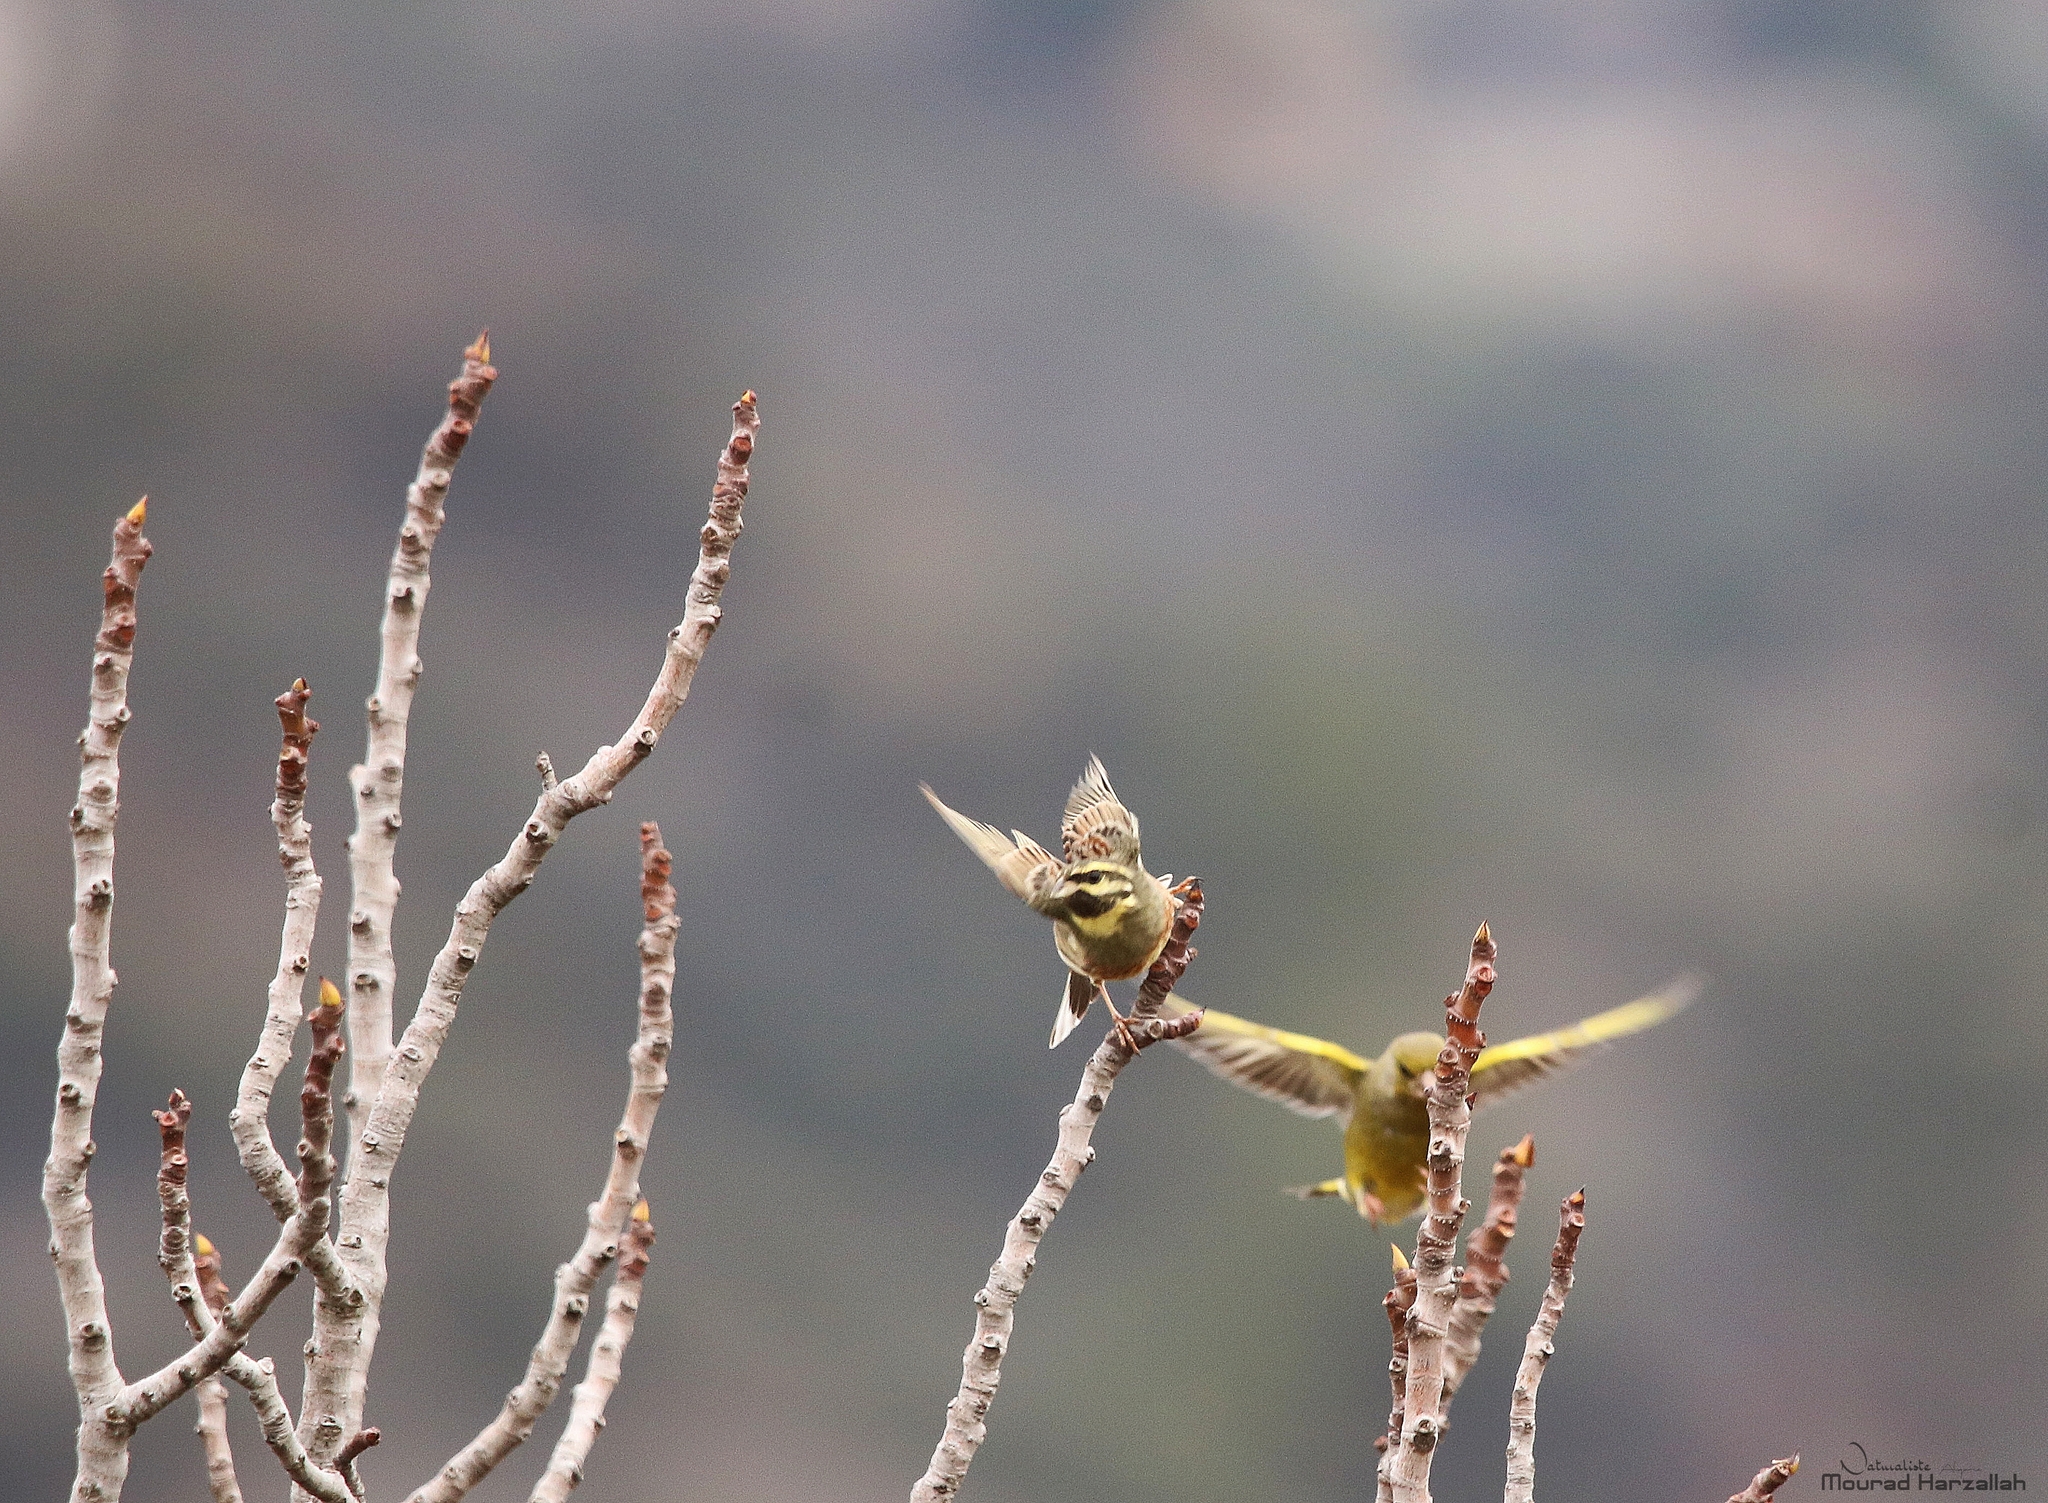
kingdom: Animalia
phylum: Chordata
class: Aves
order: Passeriformes
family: Emberizidae
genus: Emberiza
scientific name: Emberiza cirlus
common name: Cirl bunting
